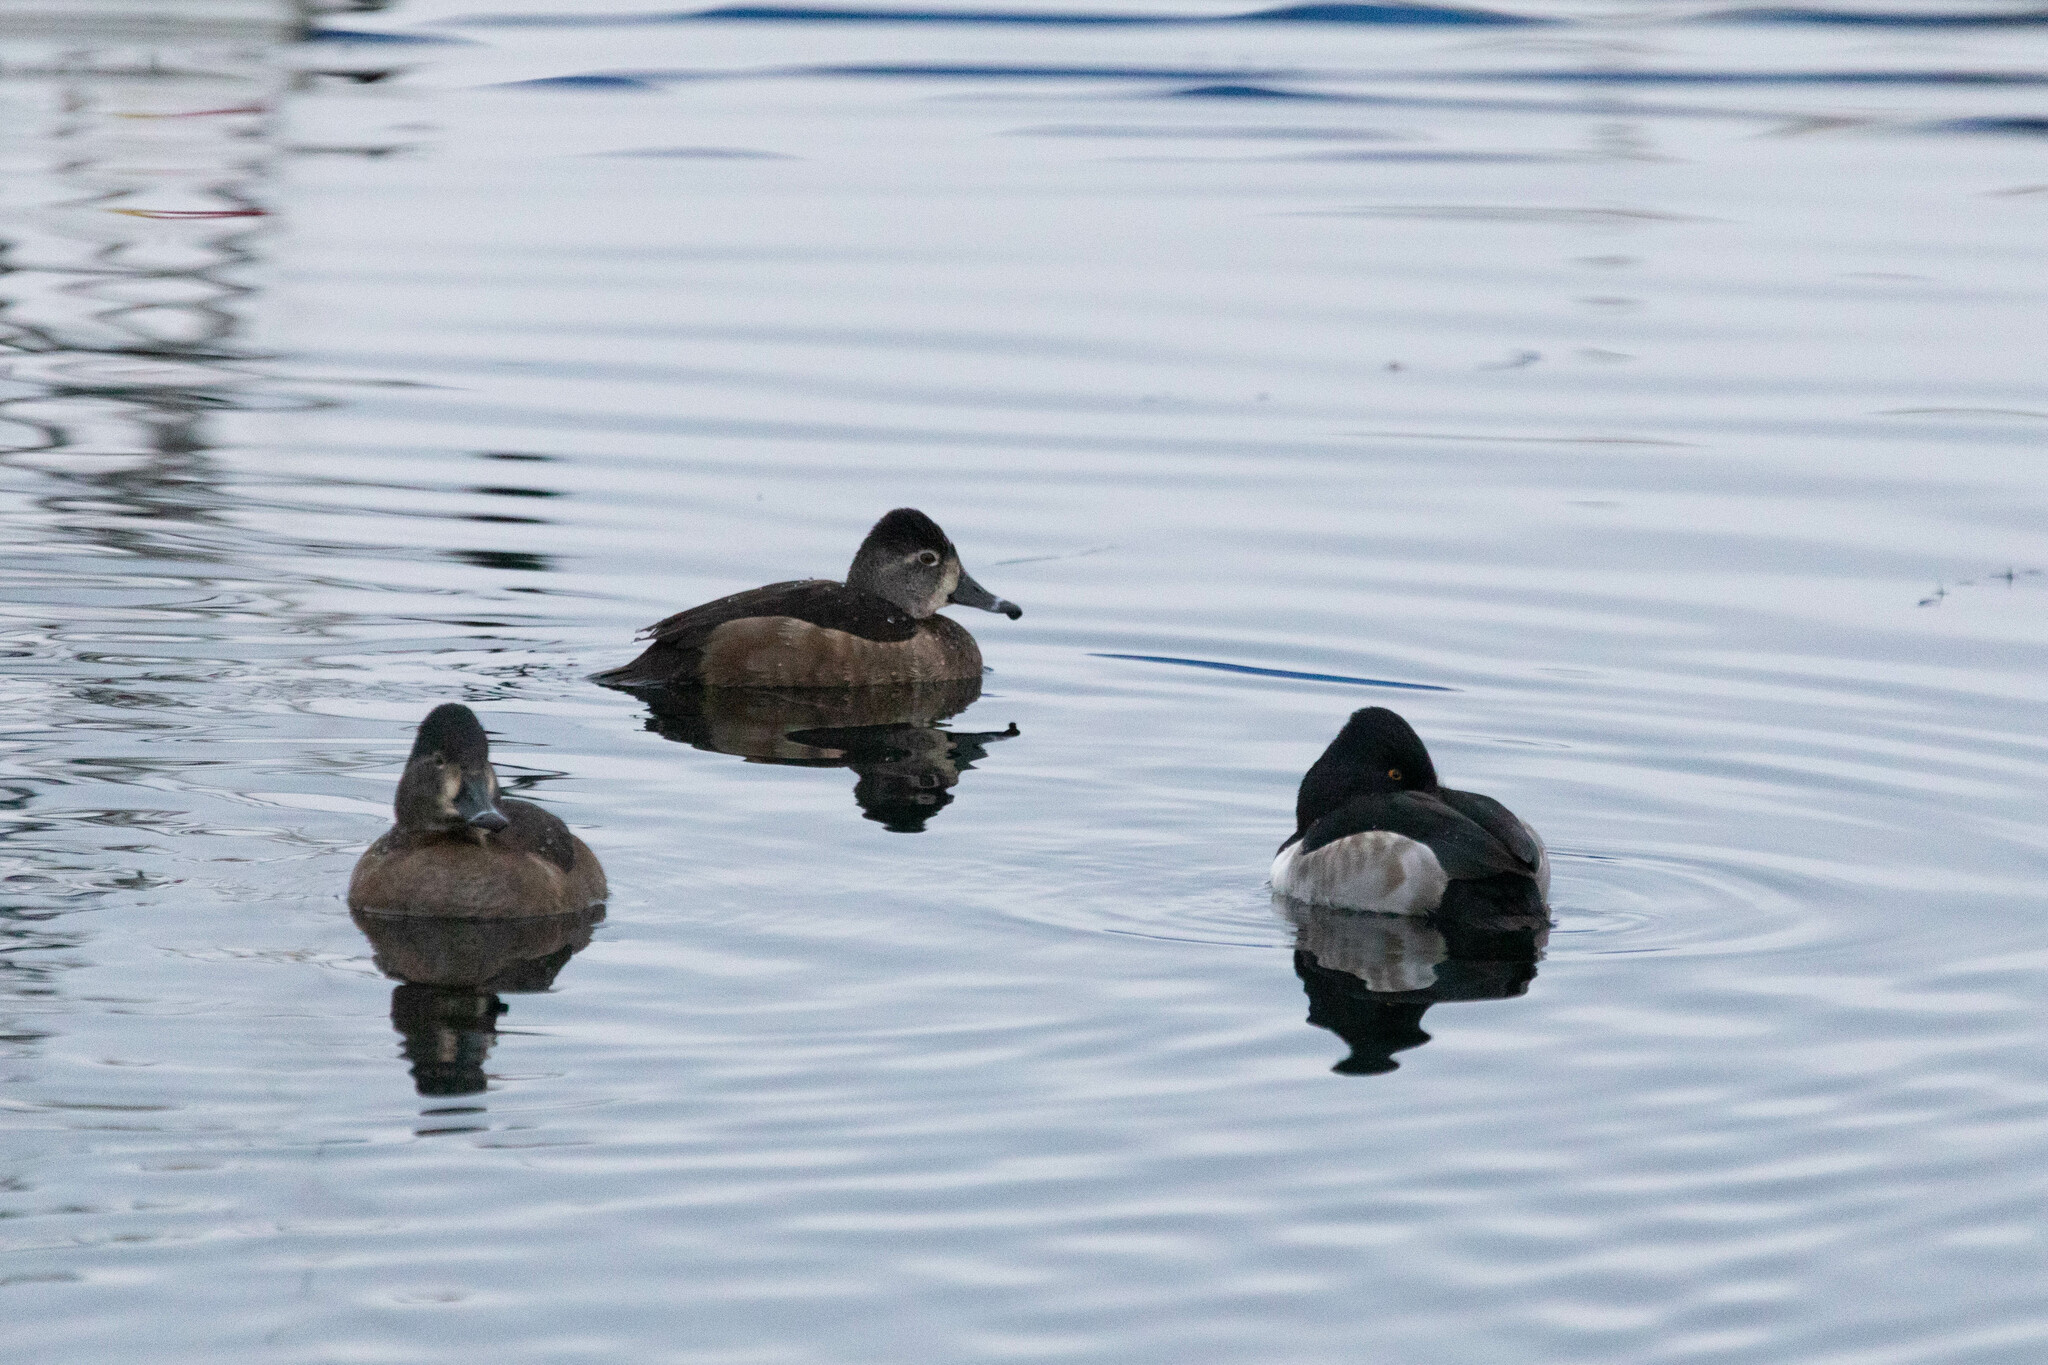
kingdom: Animalia
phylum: Chordata
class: Aves
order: Anseriformes
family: Anatidae
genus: Aythya
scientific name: Aythya collaris
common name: Ring-necked duck
